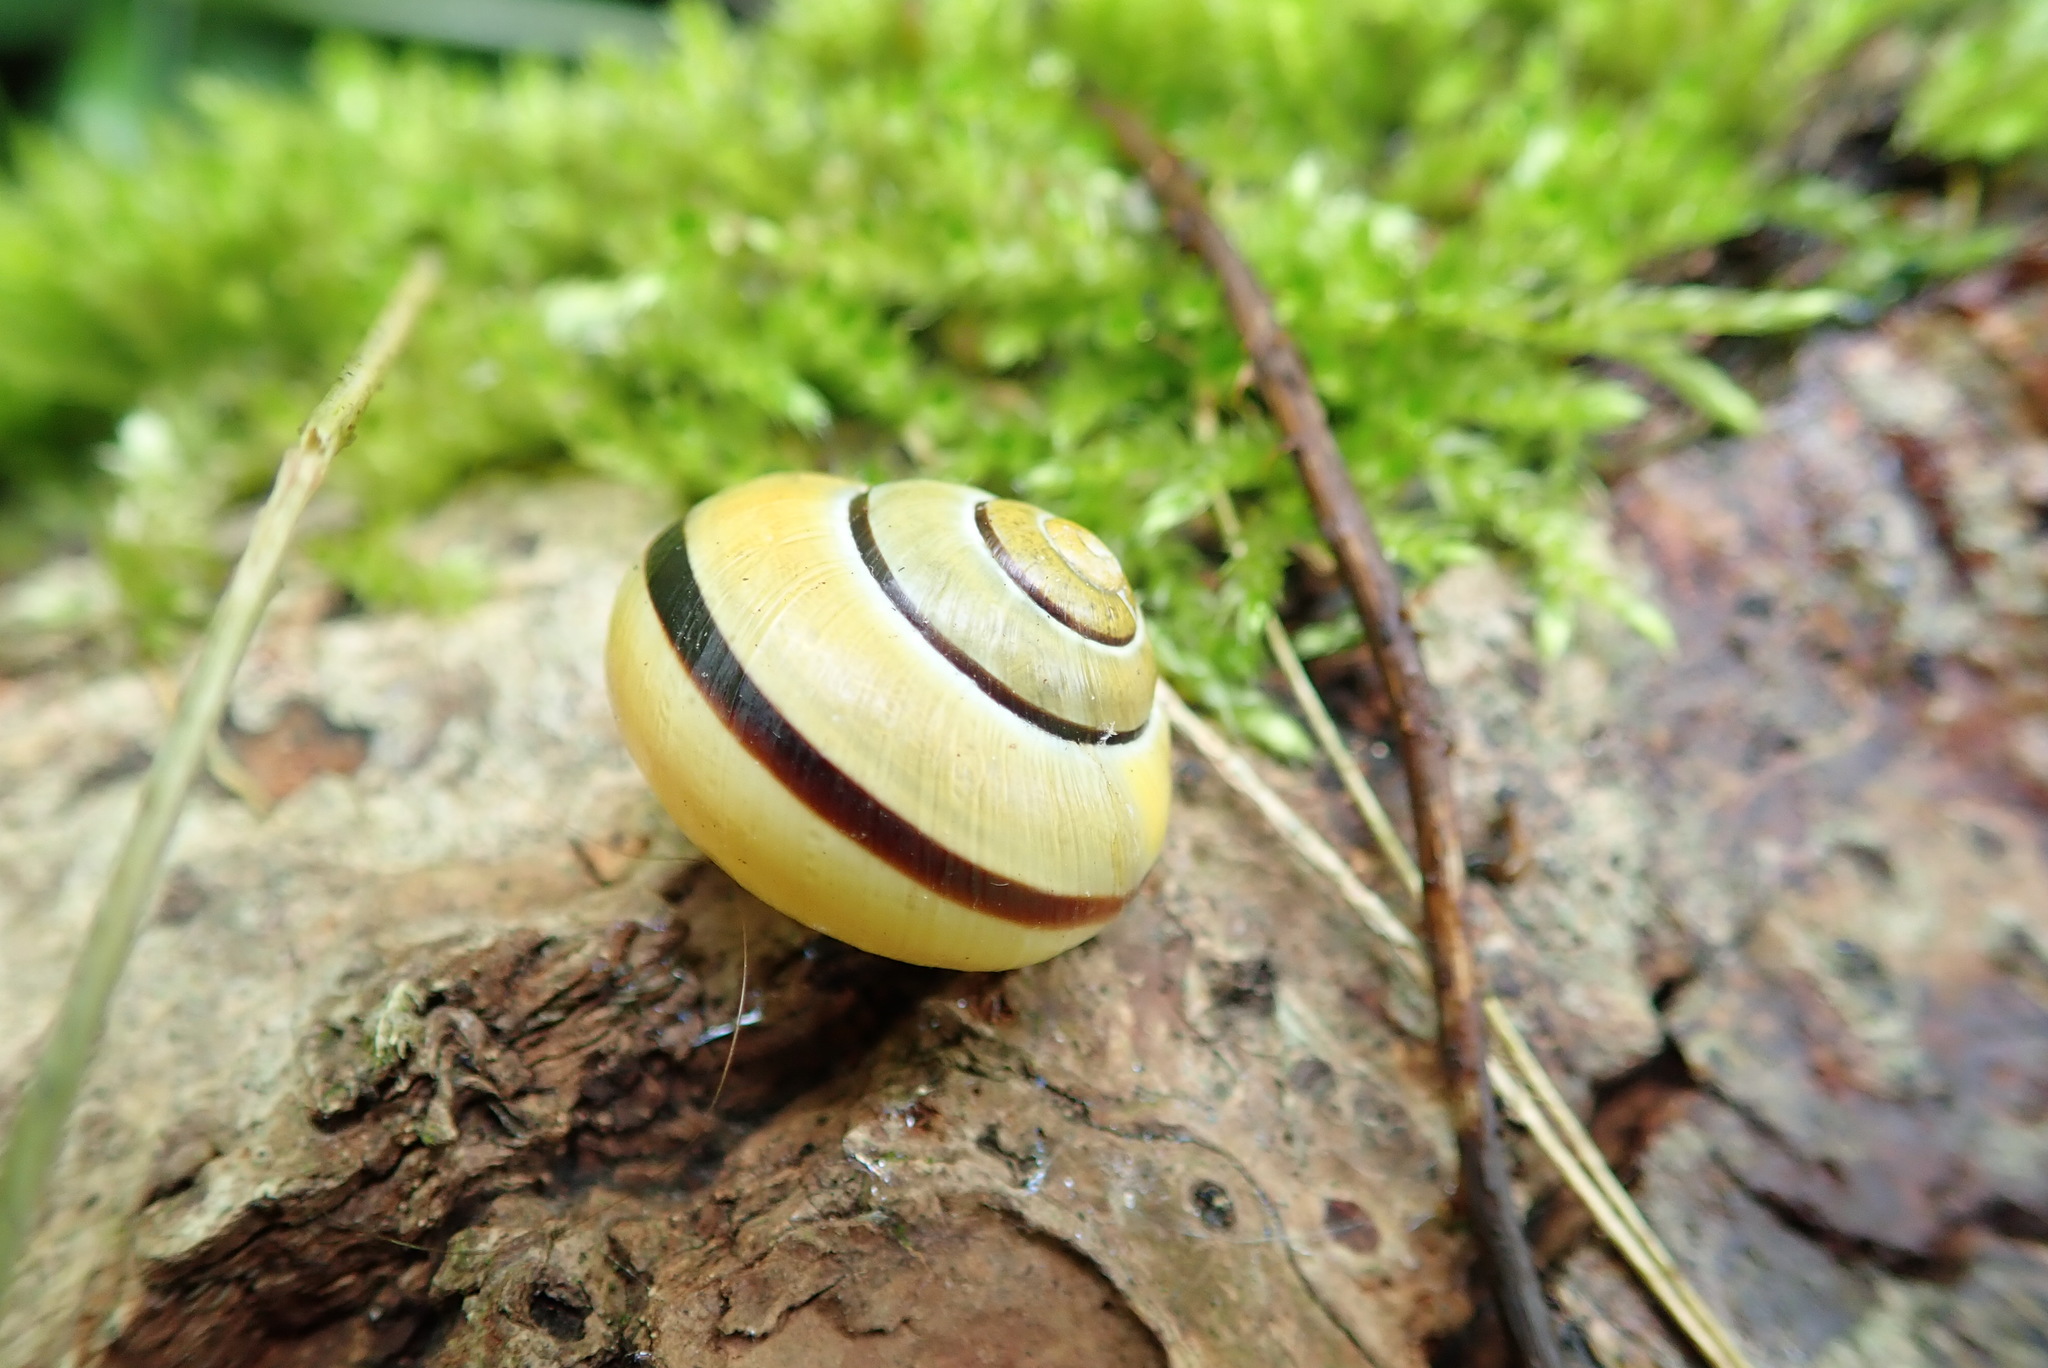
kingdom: Animalia
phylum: Mollusca
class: Gastropoda
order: Stylommatophora
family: Helicidae
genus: Cepaea
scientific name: Cepaea nemoralis
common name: Grovesnail
